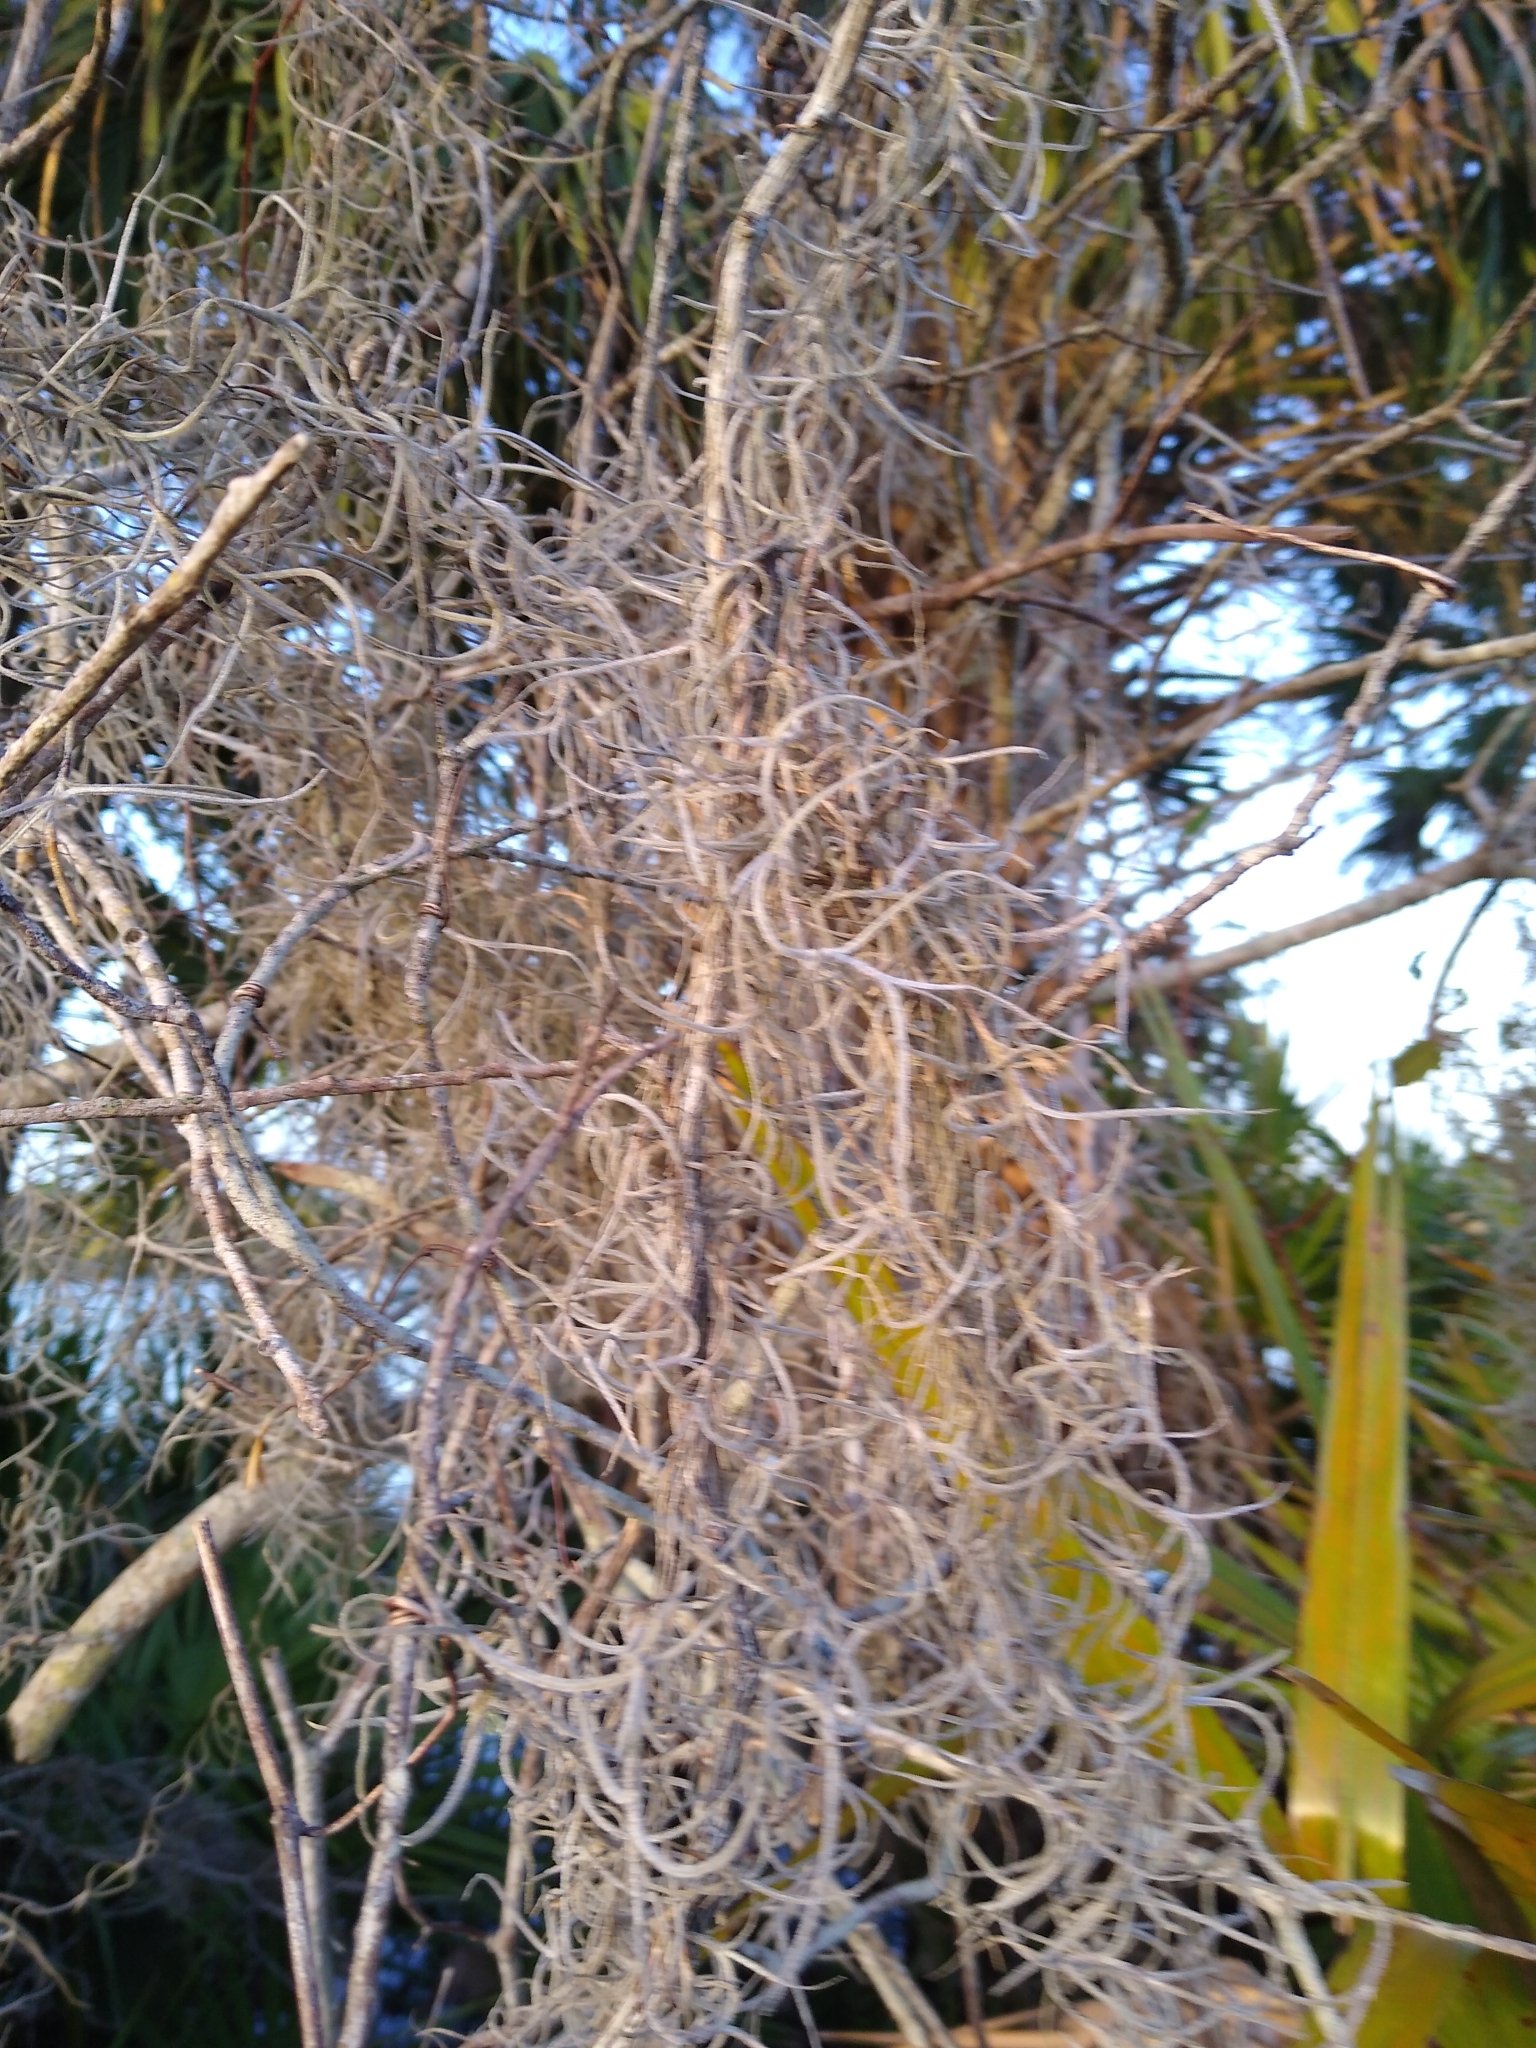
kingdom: Plantae
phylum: Tracheophyta
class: Liliopsida
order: Poales
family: Bromeliaceae
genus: Tillandsia
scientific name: Tillandsia usneoides
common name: Spanish moss
